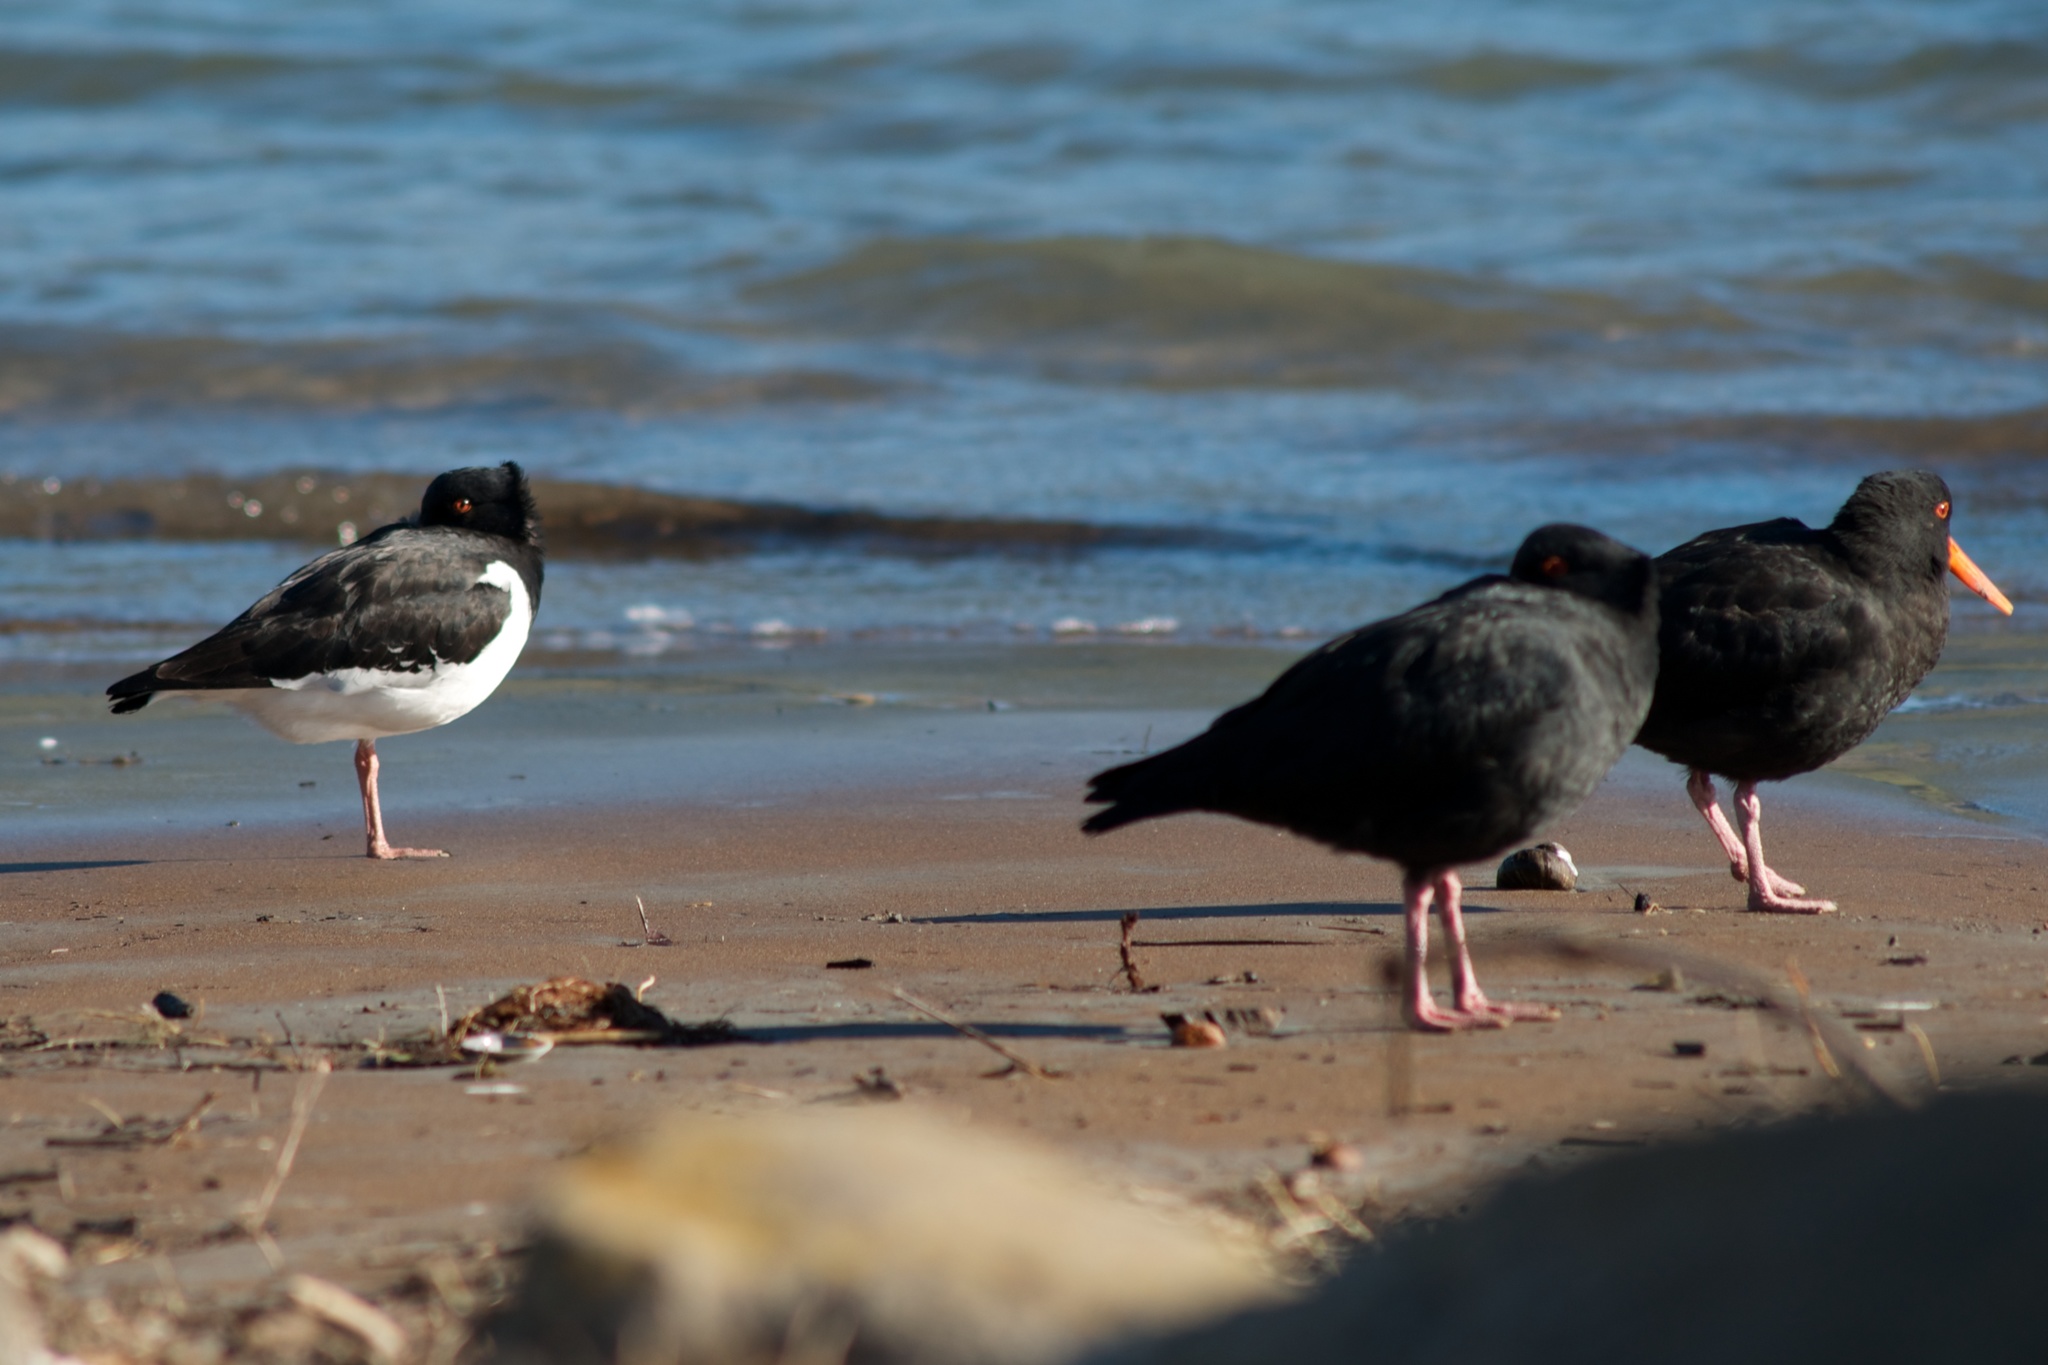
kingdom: Animalia
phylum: Chordata
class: Aves
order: Charadriiformes
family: Haematopodidae
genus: Haematopus
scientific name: Haematopus unicolor
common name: Variable oystercatcher
